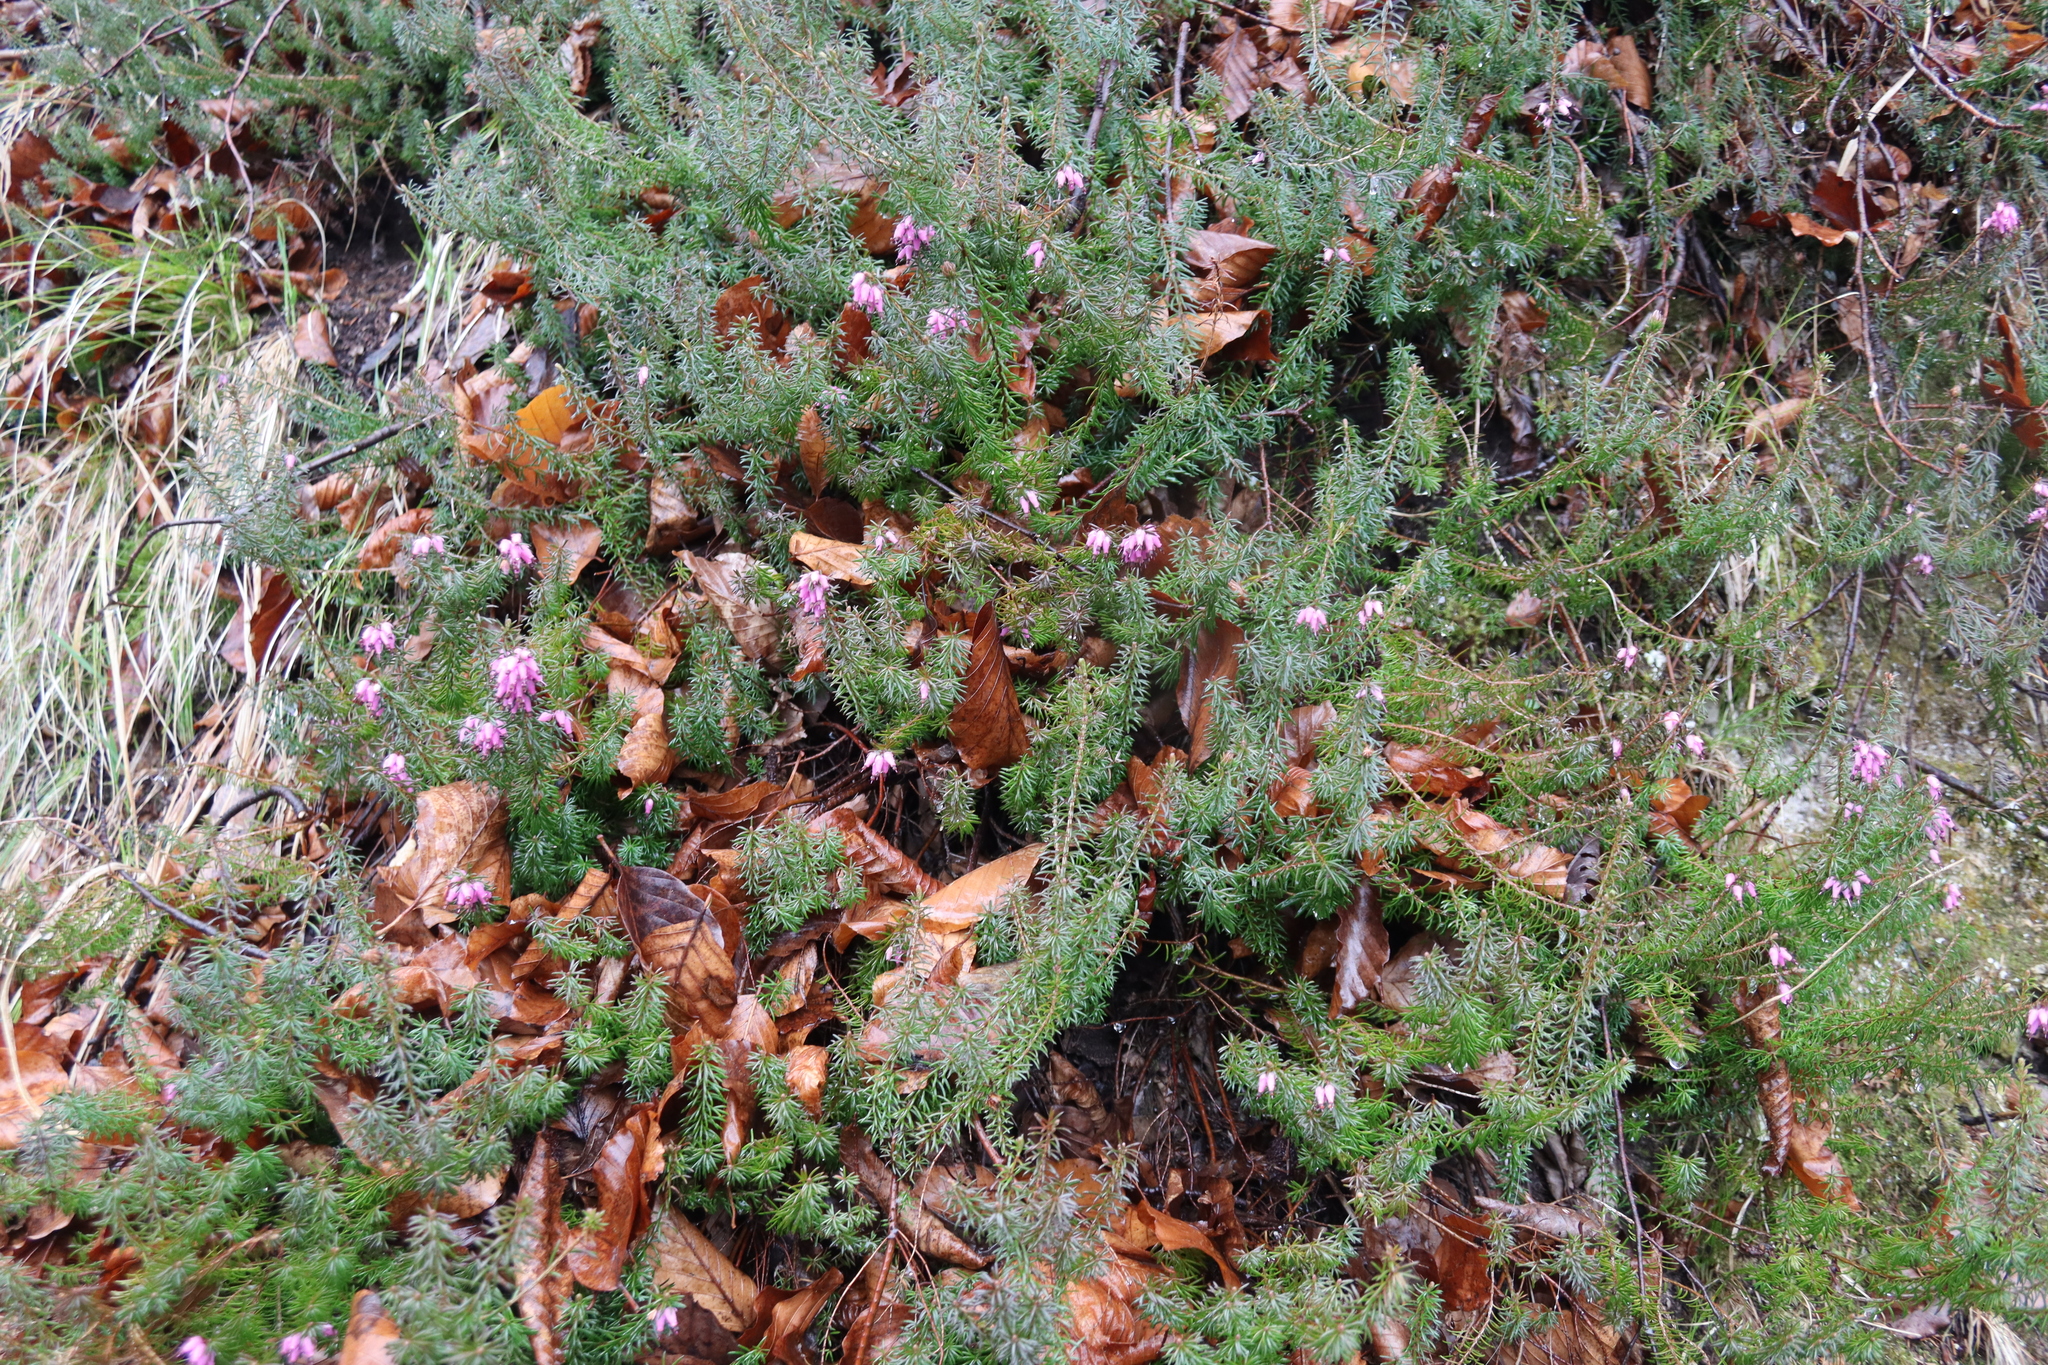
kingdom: Plantae
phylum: Tracheophyta
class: Magnoliopsida
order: Ericales
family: Ericaceae
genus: Erica
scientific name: Erica carnea
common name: Winter heath
